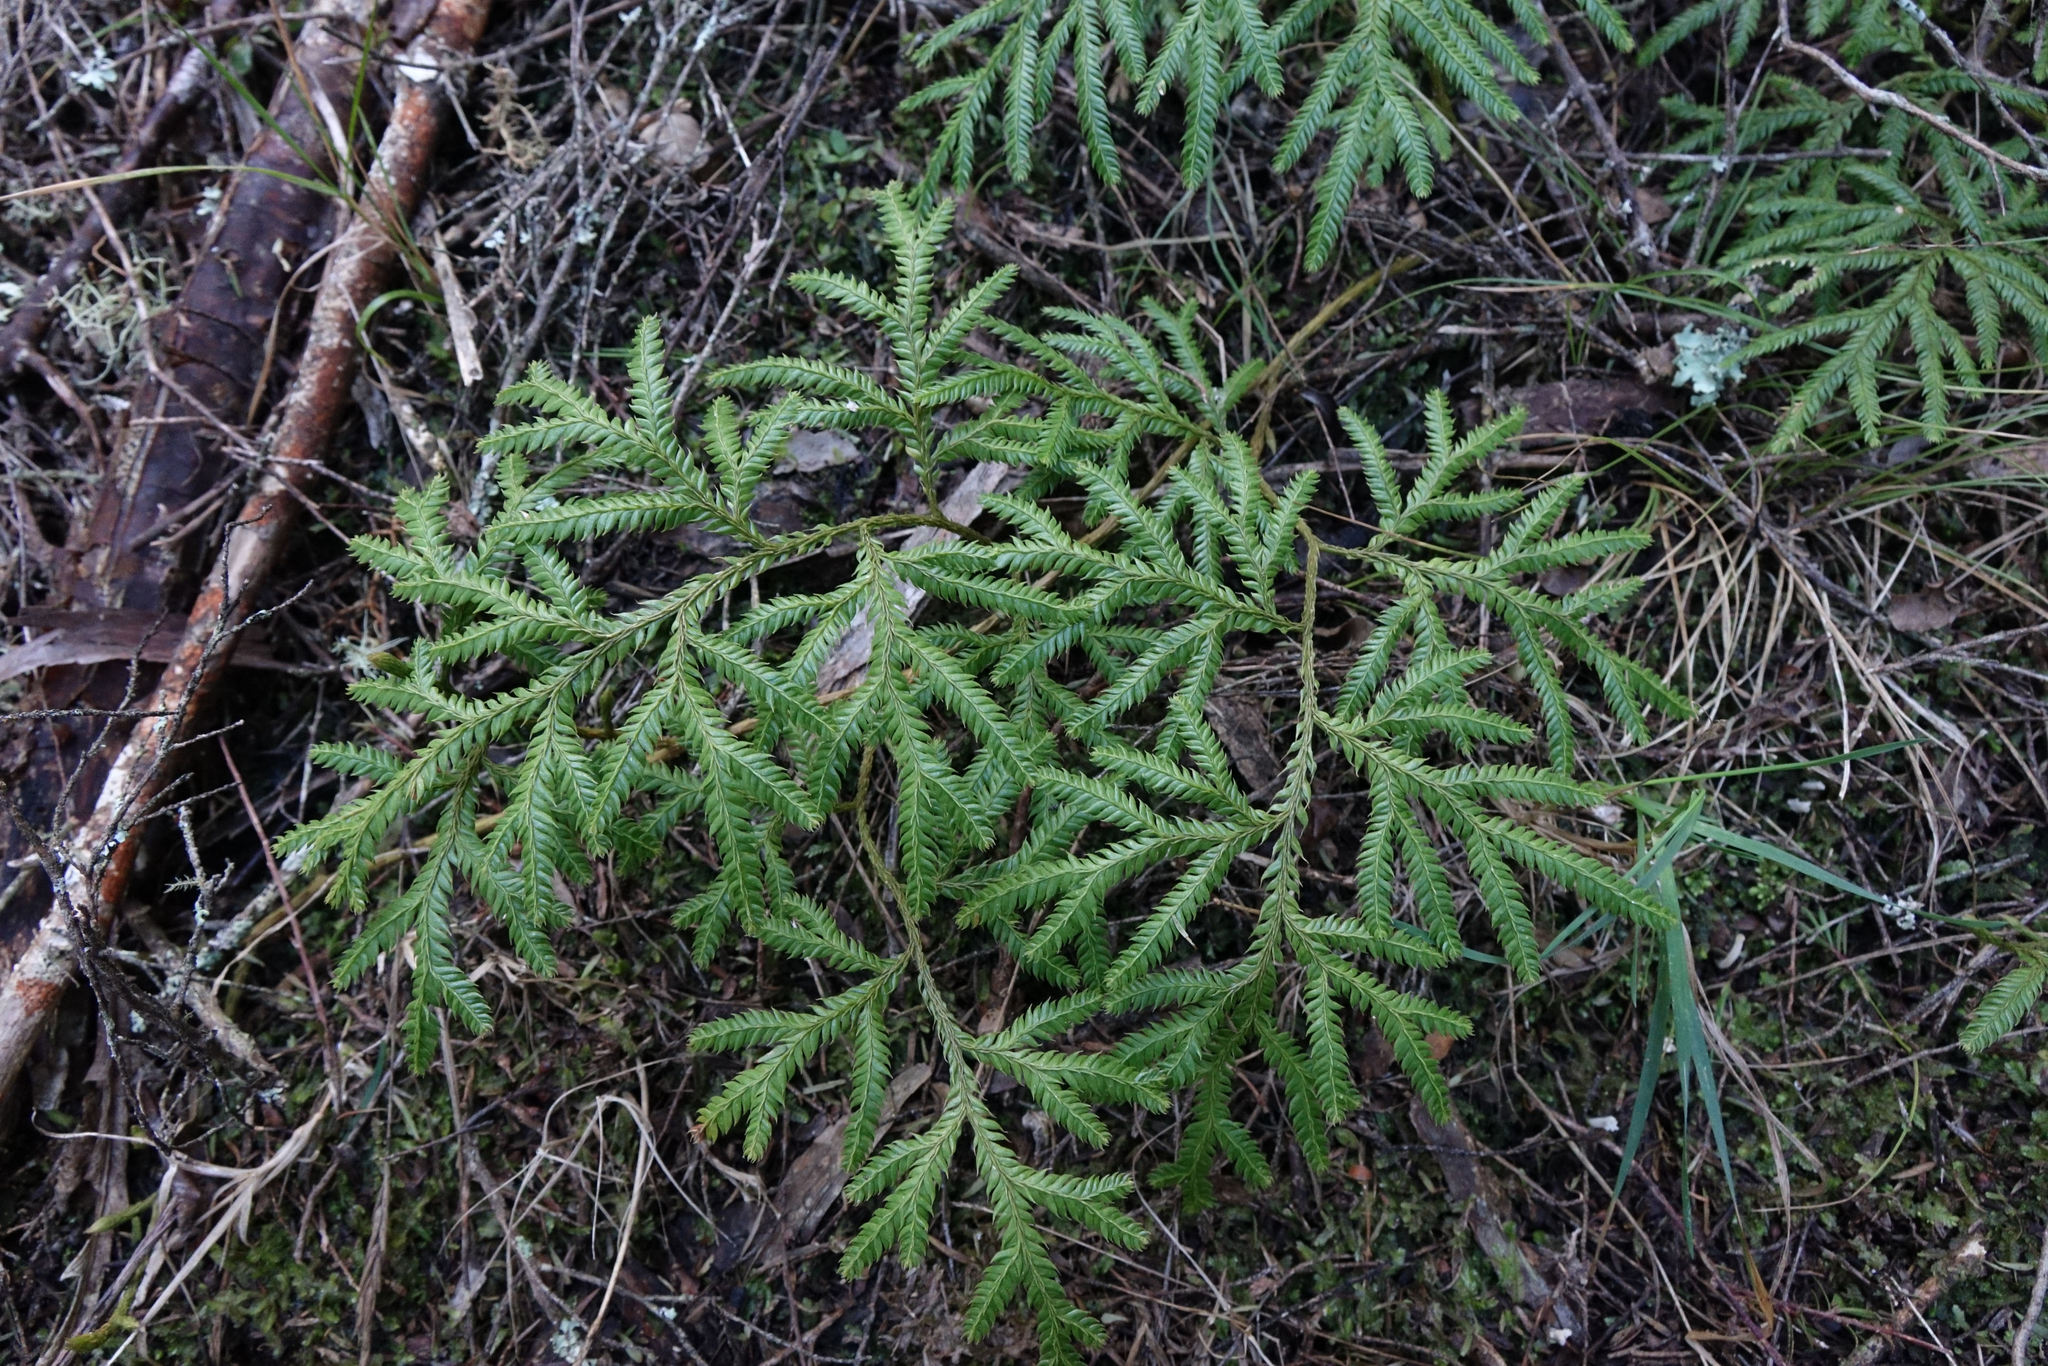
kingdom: Plantae
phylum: Tracheophyta
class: Lycopodiopsida
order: Lycopodiales
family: Lycopodiaceae
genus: Lycopodium
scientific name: Lycopodium volubile
